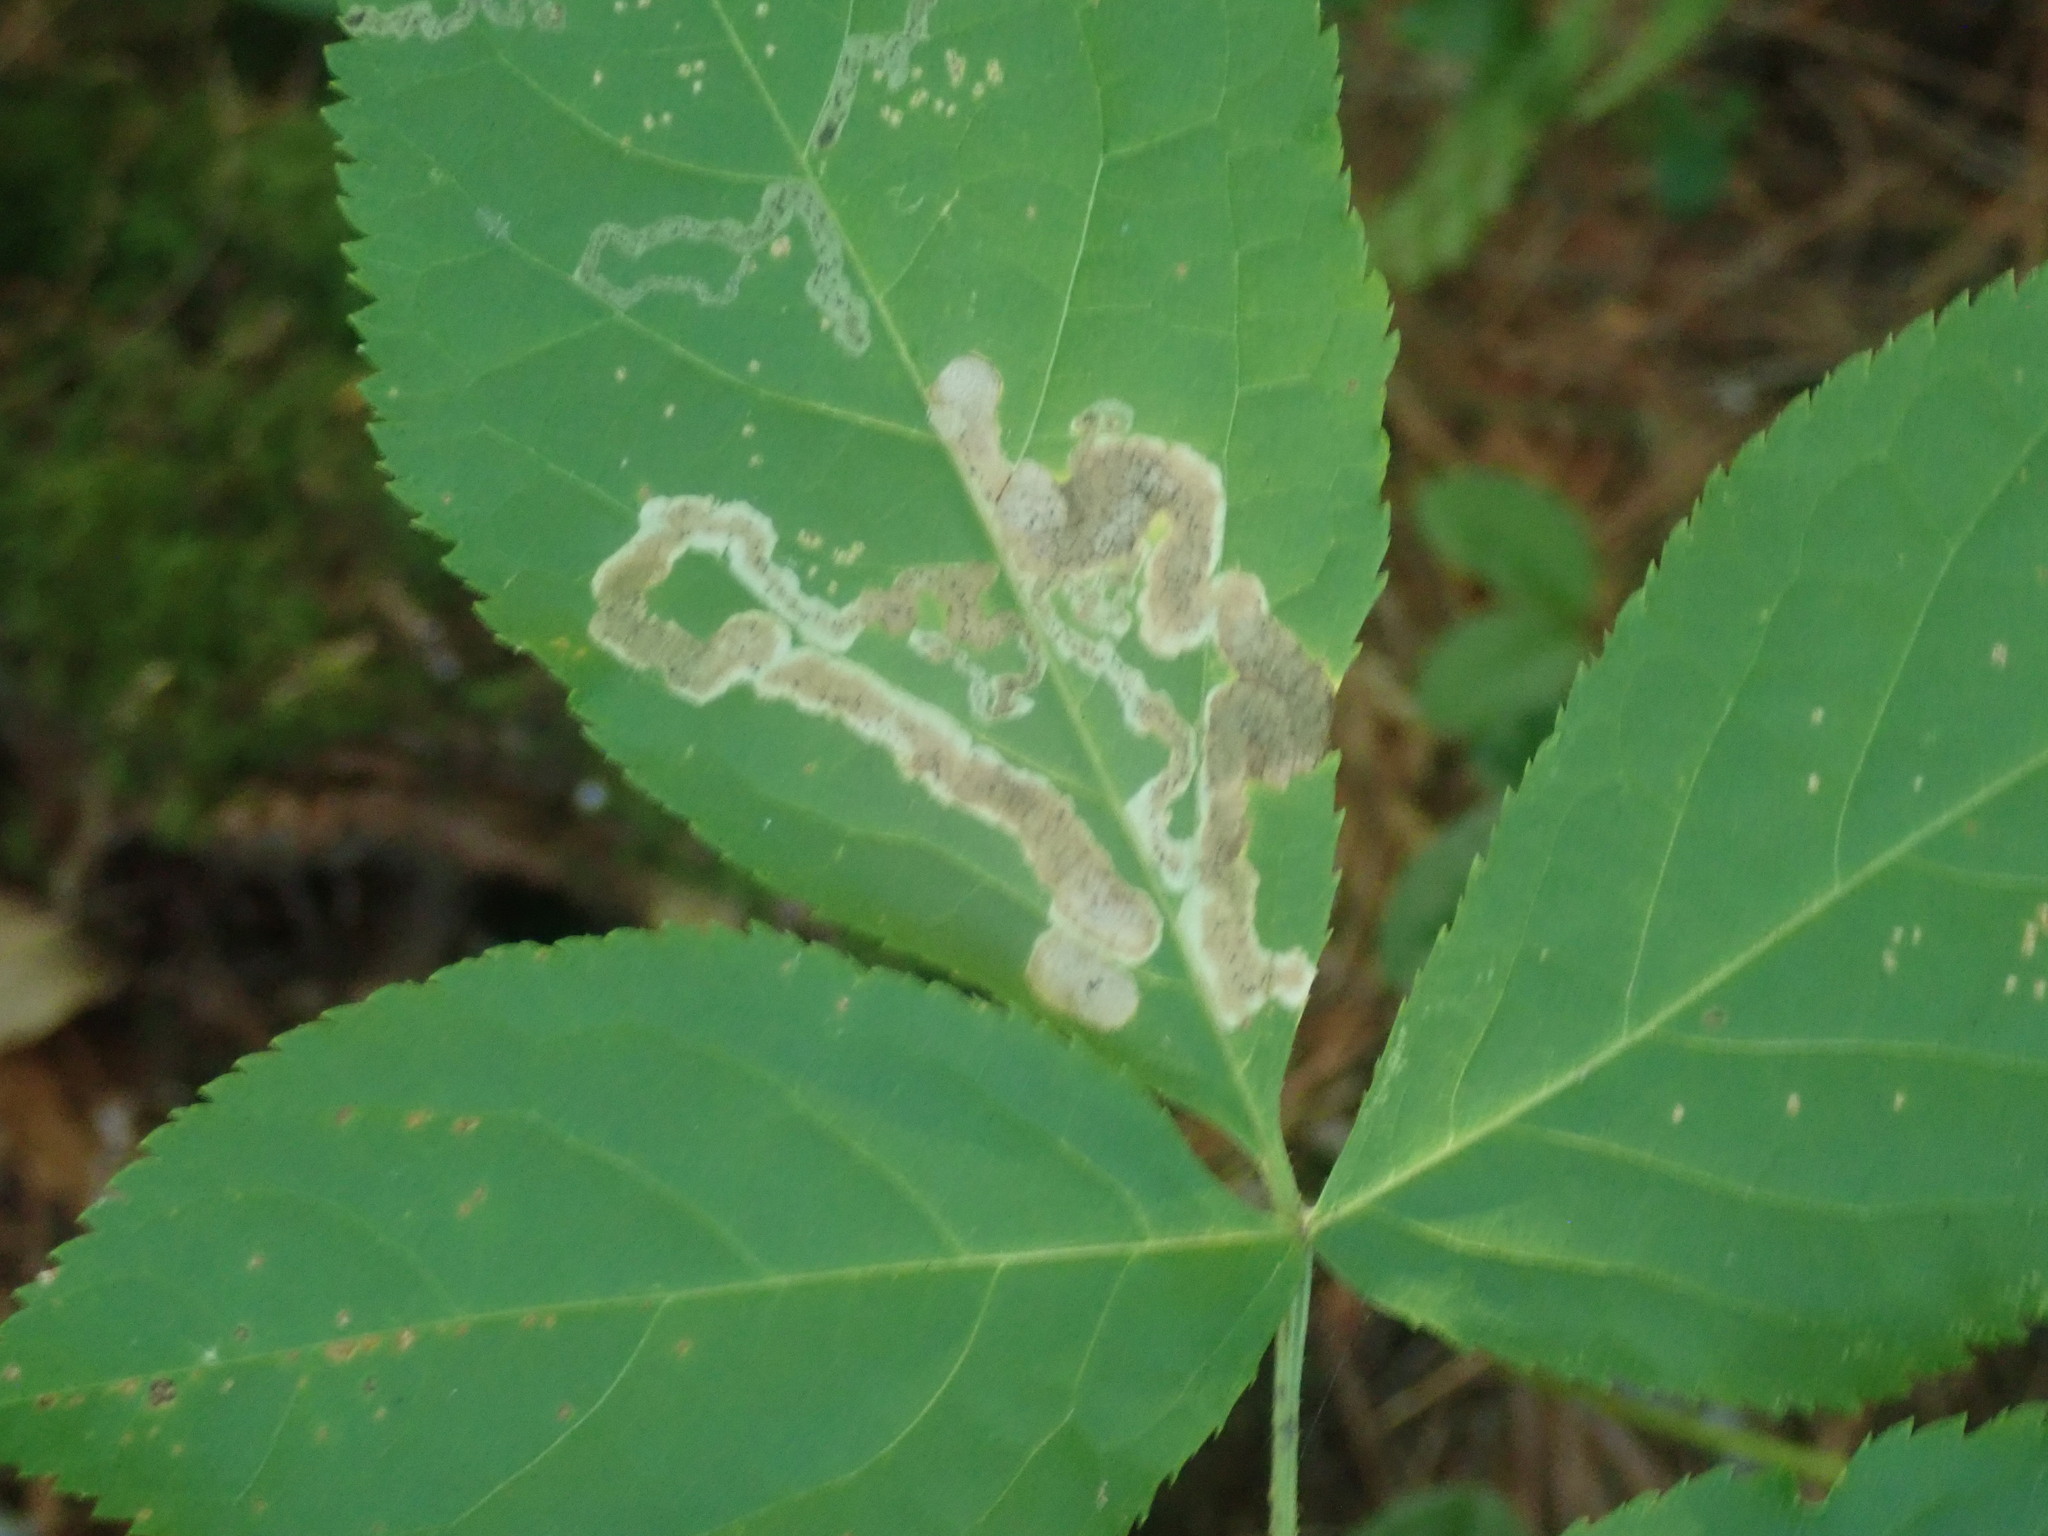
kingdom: Animalia
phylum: Arthropoda
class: Insecta
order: Diptera
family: Agromyzidae
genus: Phytomyza
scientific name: Phytomyza aralivora
